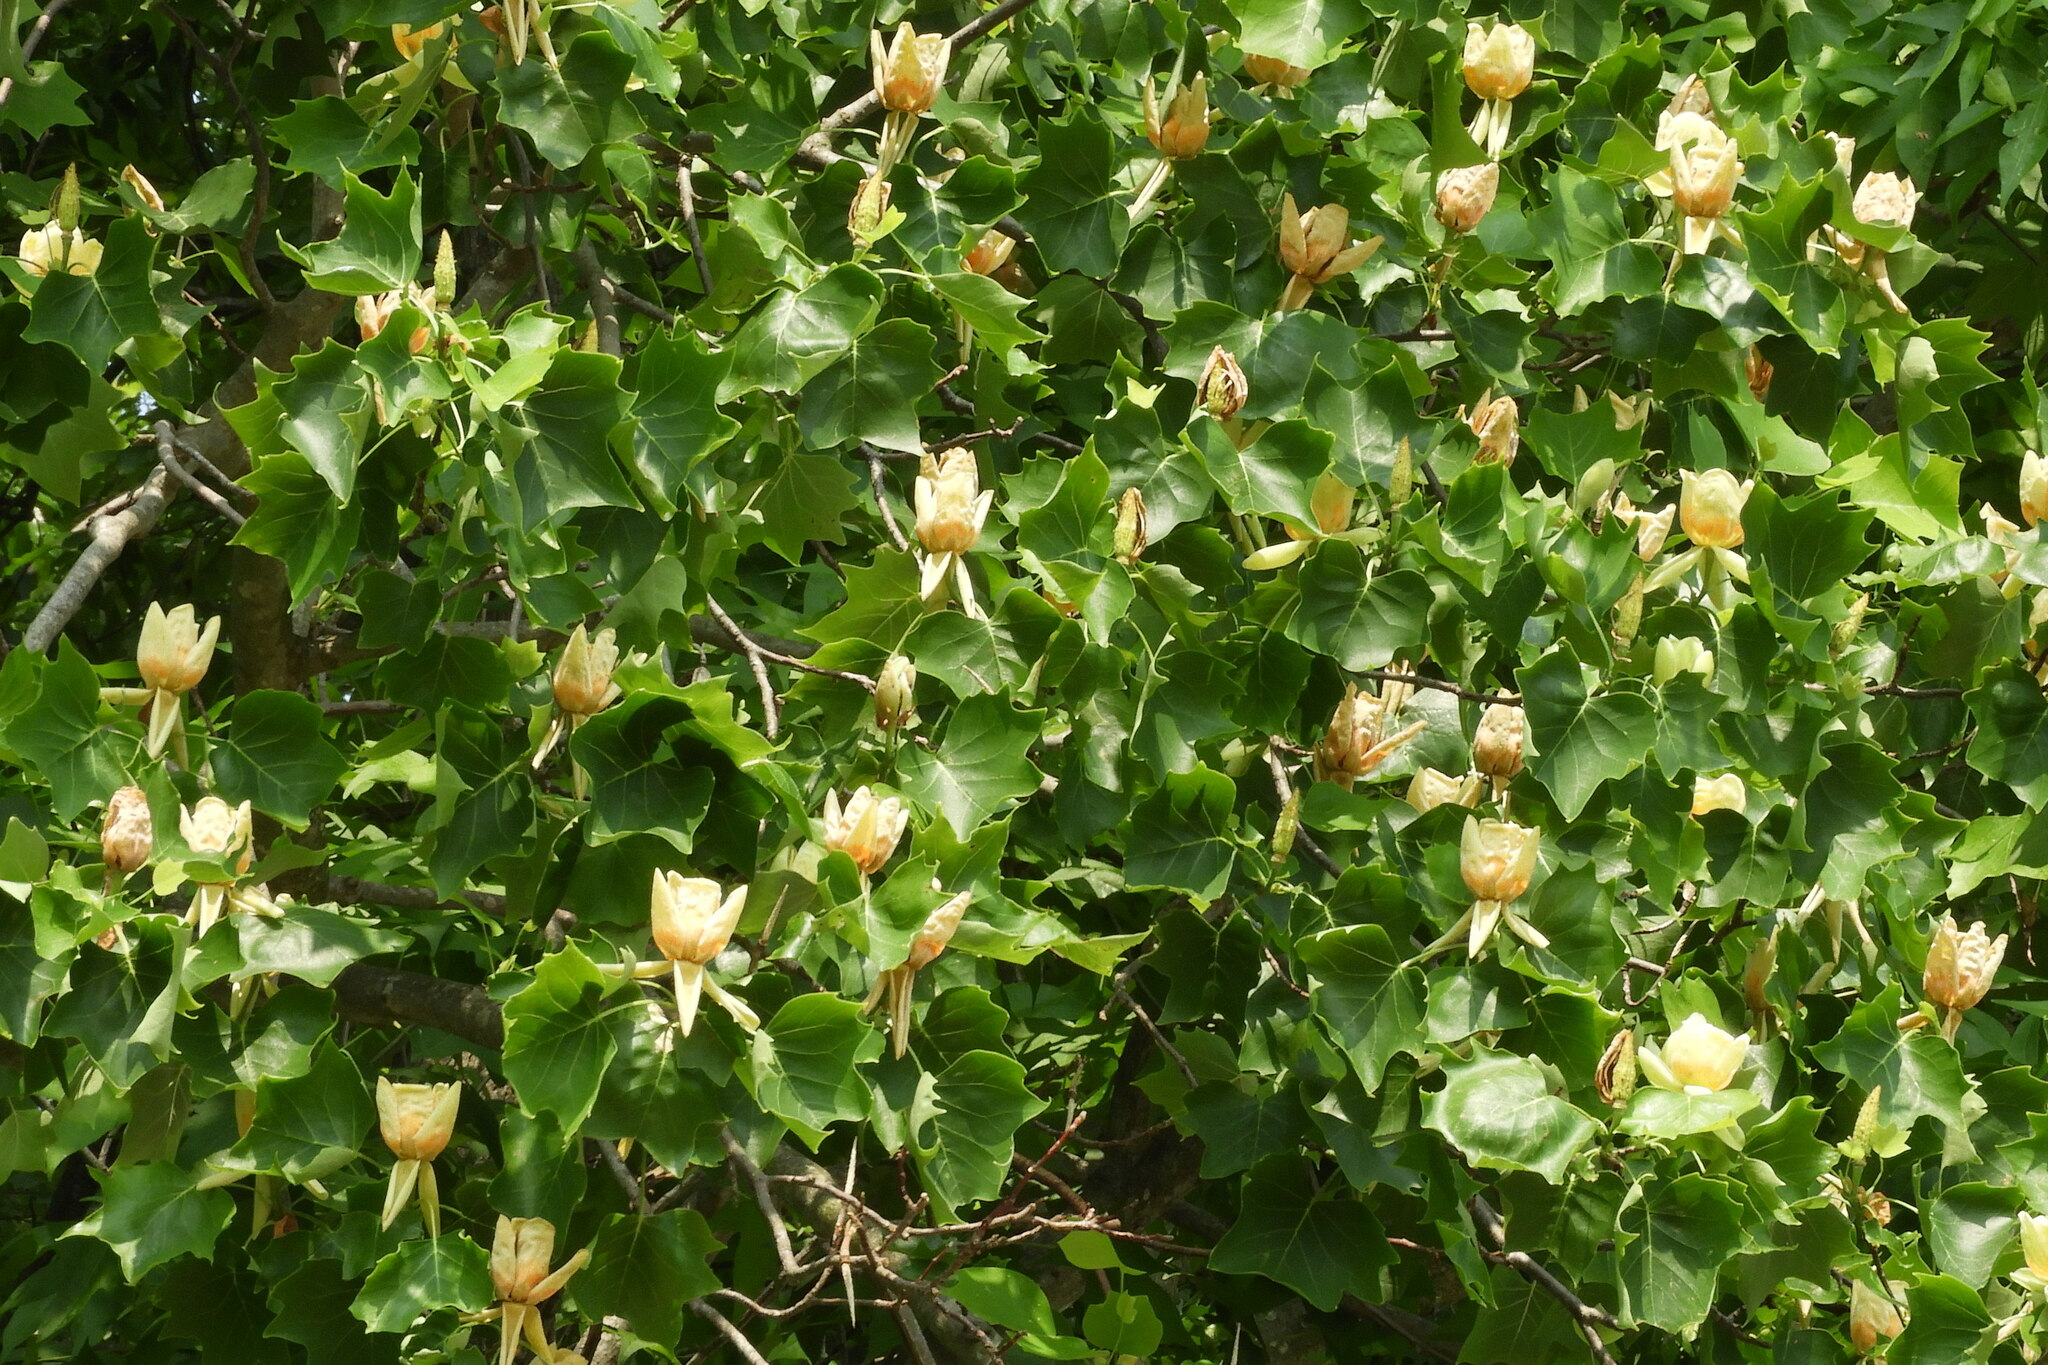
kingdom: Plantae
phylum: Tracheophyta
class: Magnoliopsida
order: Magnoliales
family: Magnoliaceae
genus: Liriodendron
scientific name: Liriodendron tulipifera
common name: Tulip tree
